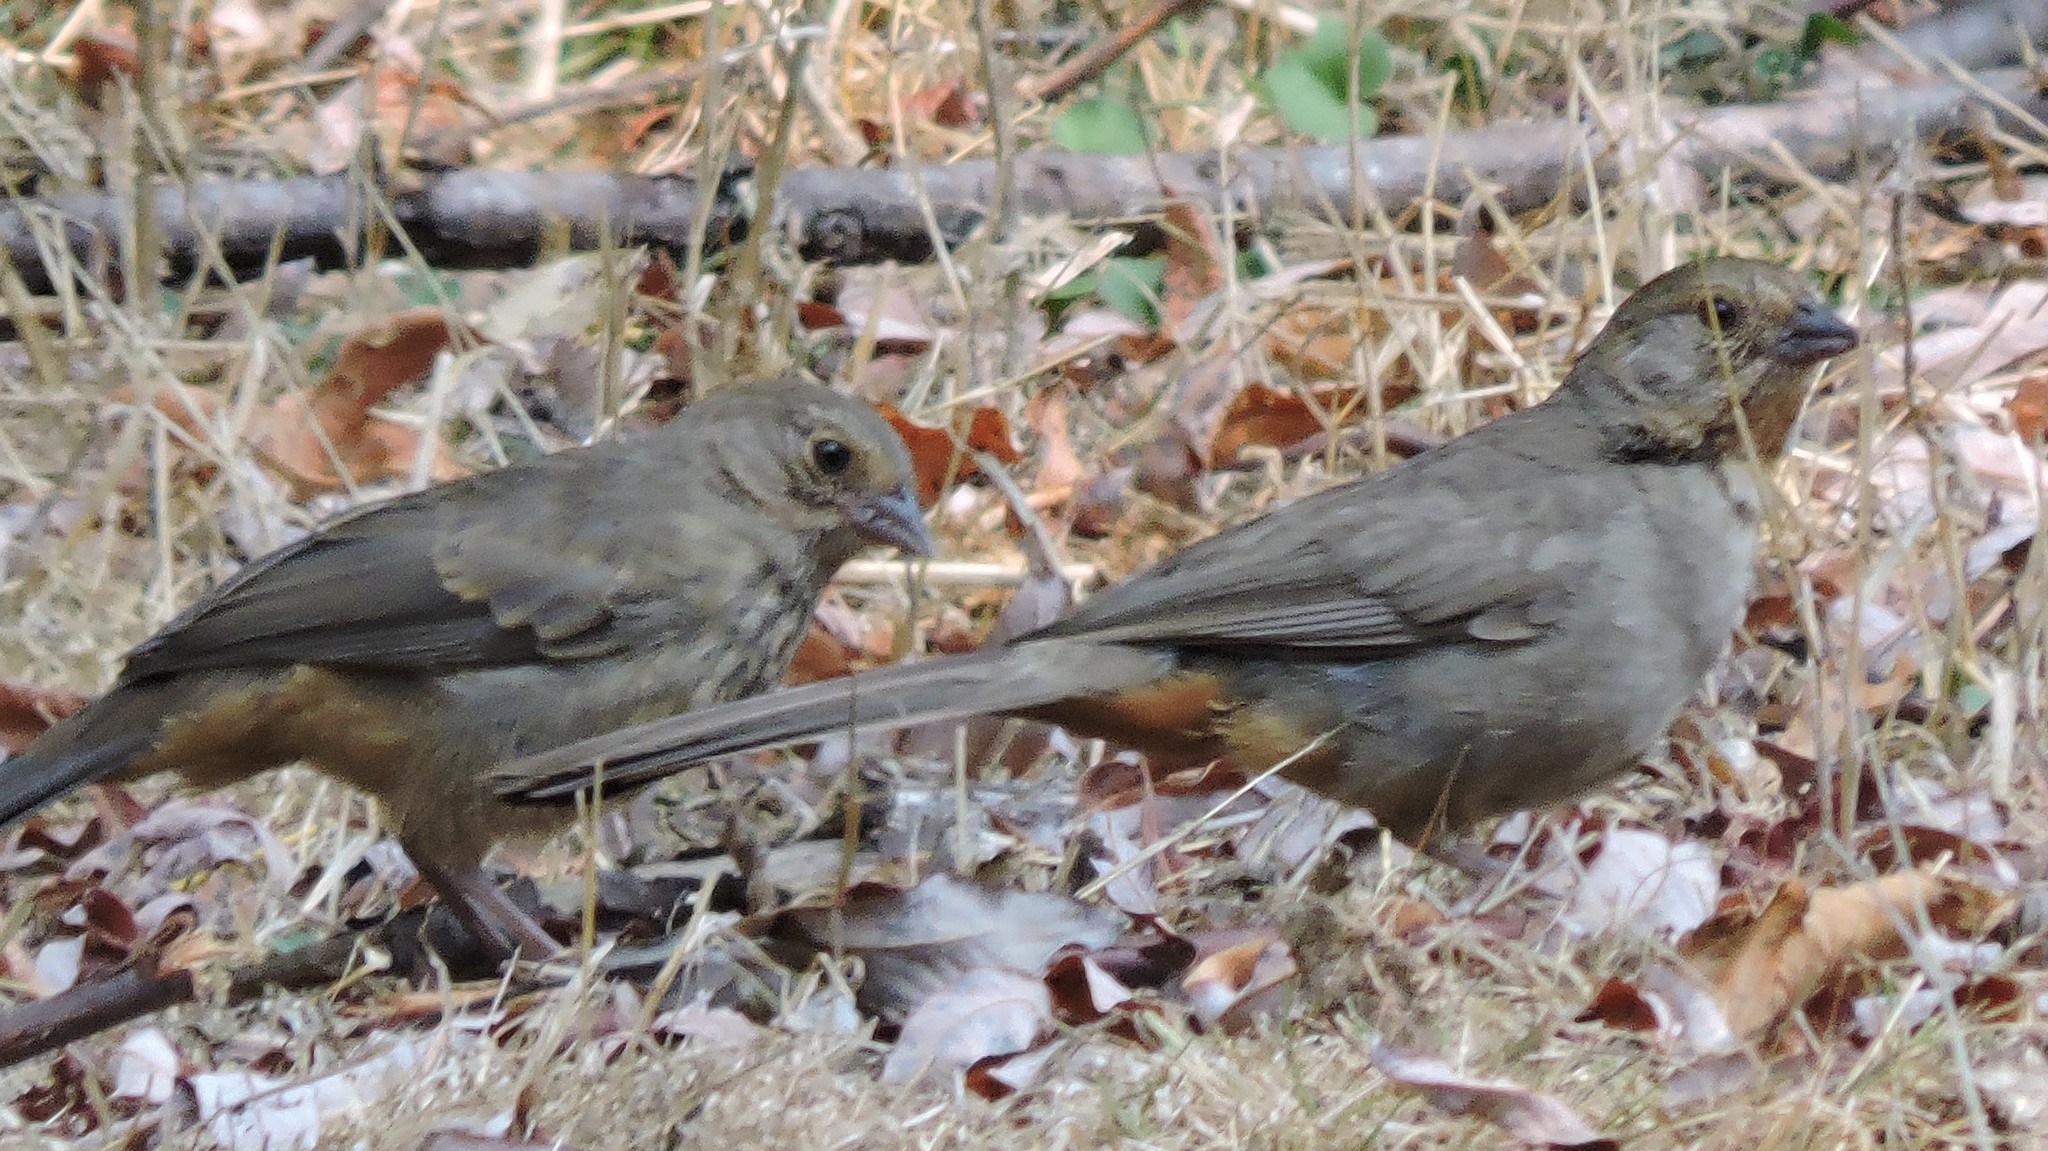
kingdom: Animalia
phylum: Chordata
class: Aves
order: Passeriformes
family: Passerellidae
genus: Melozone
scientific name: Melozone crissalis
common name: California towhee
